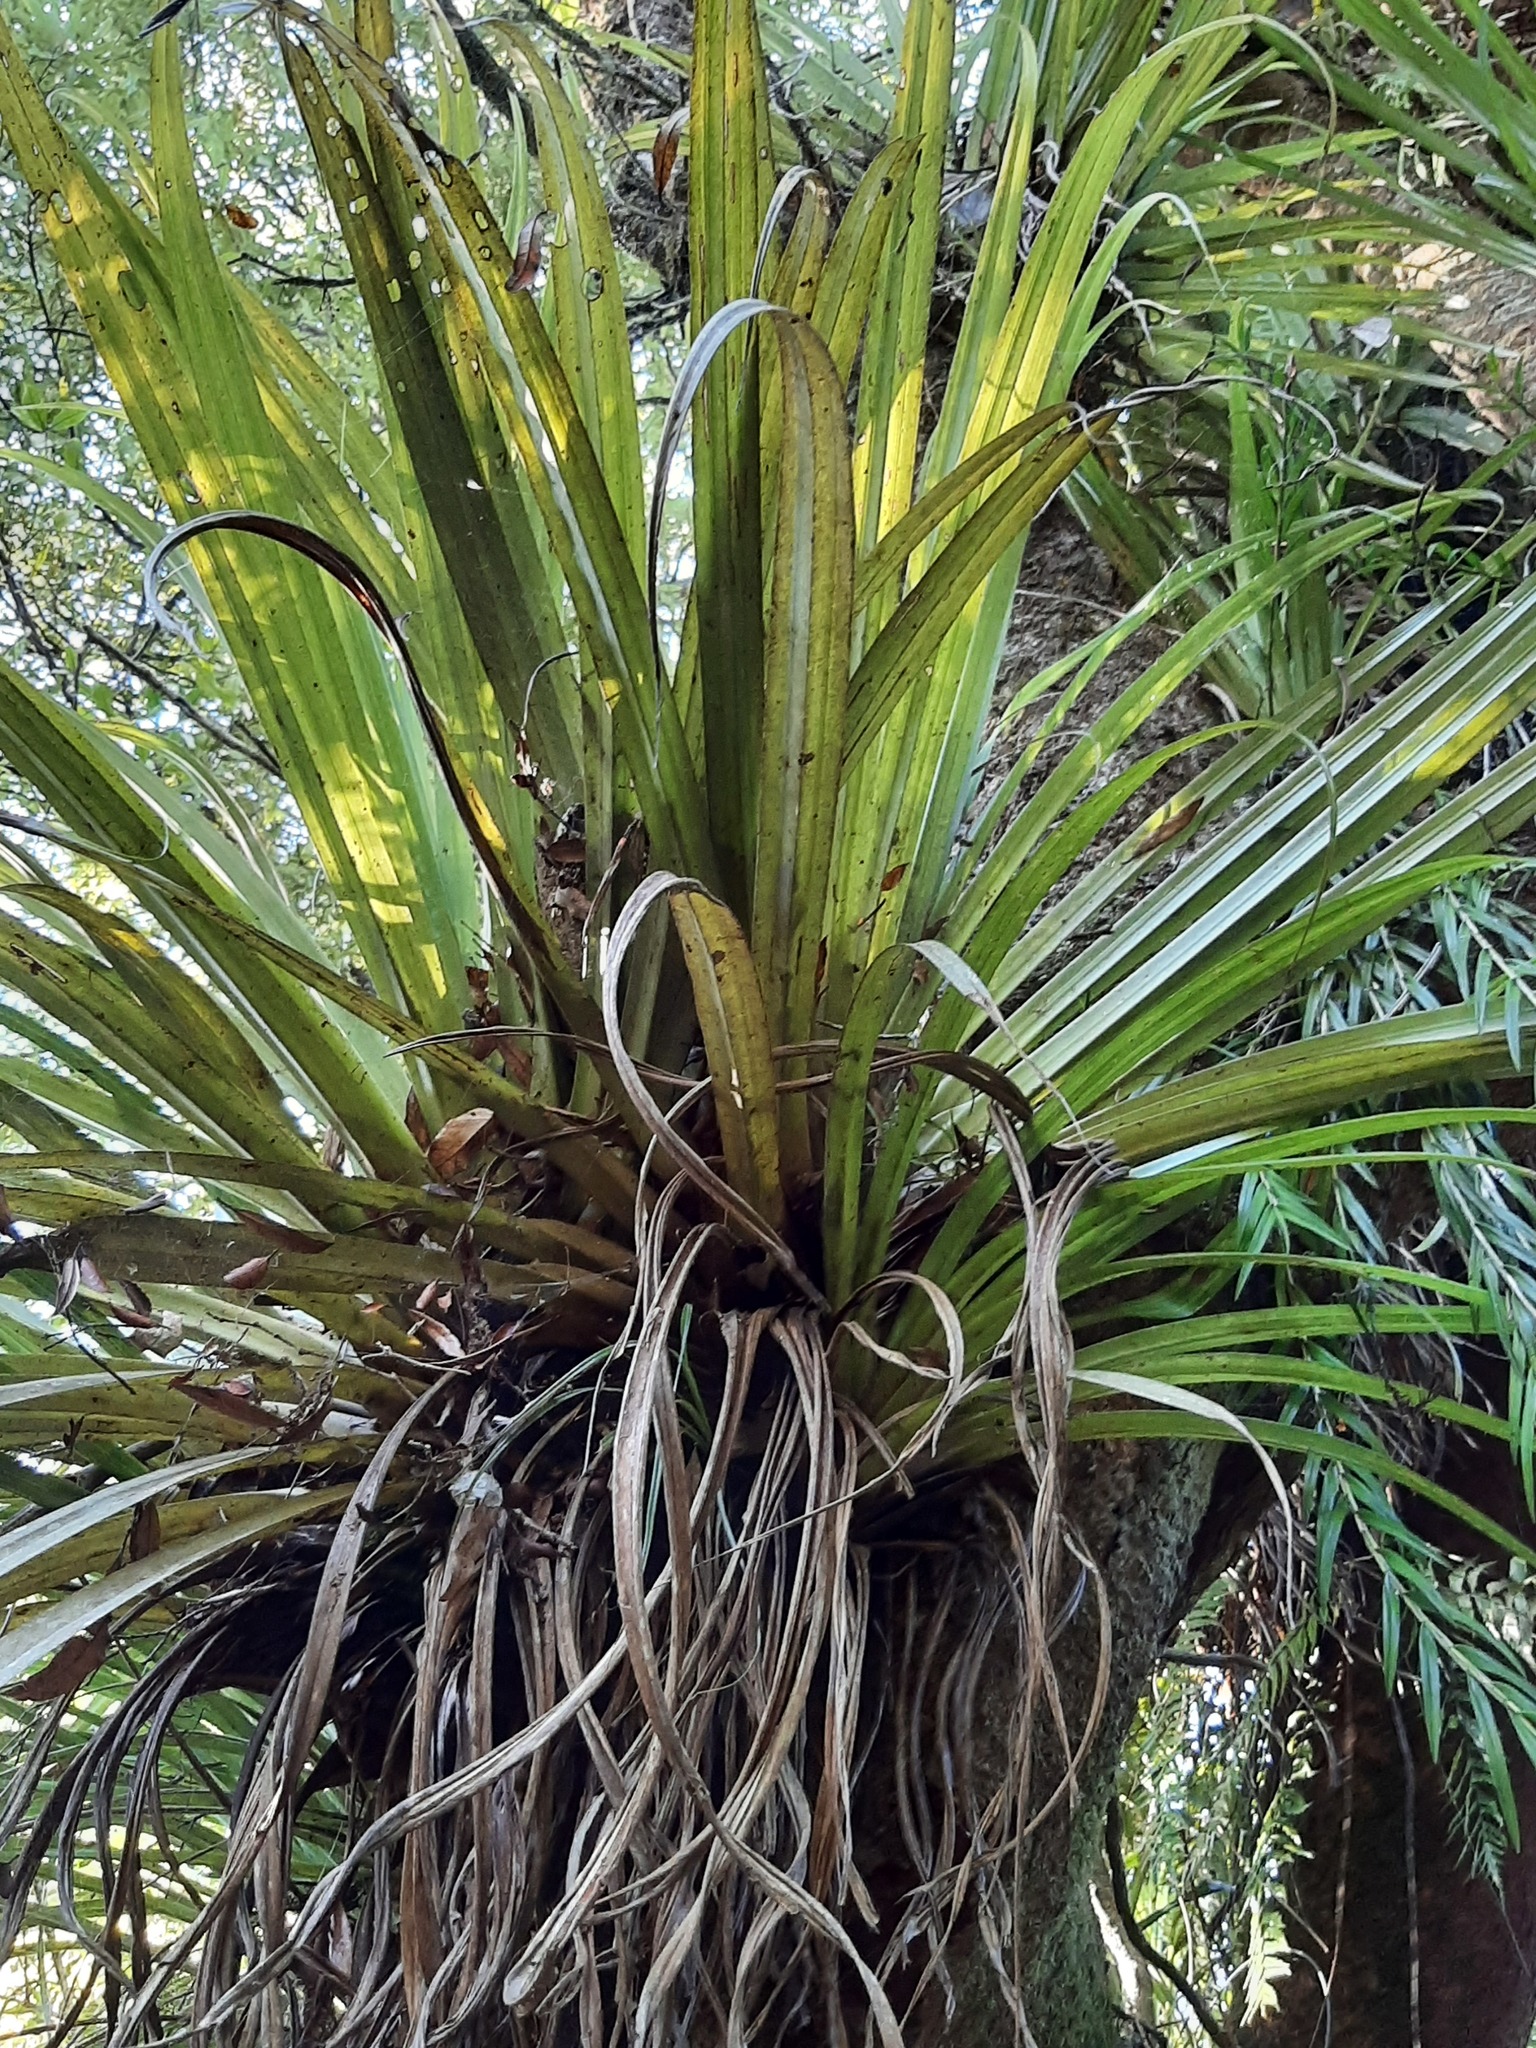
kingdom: Plantae
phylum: Tracheophyta
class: Liliopsida
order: Asparagales
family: Asteliaceae
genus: Astelia
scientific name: Astelia hastata
